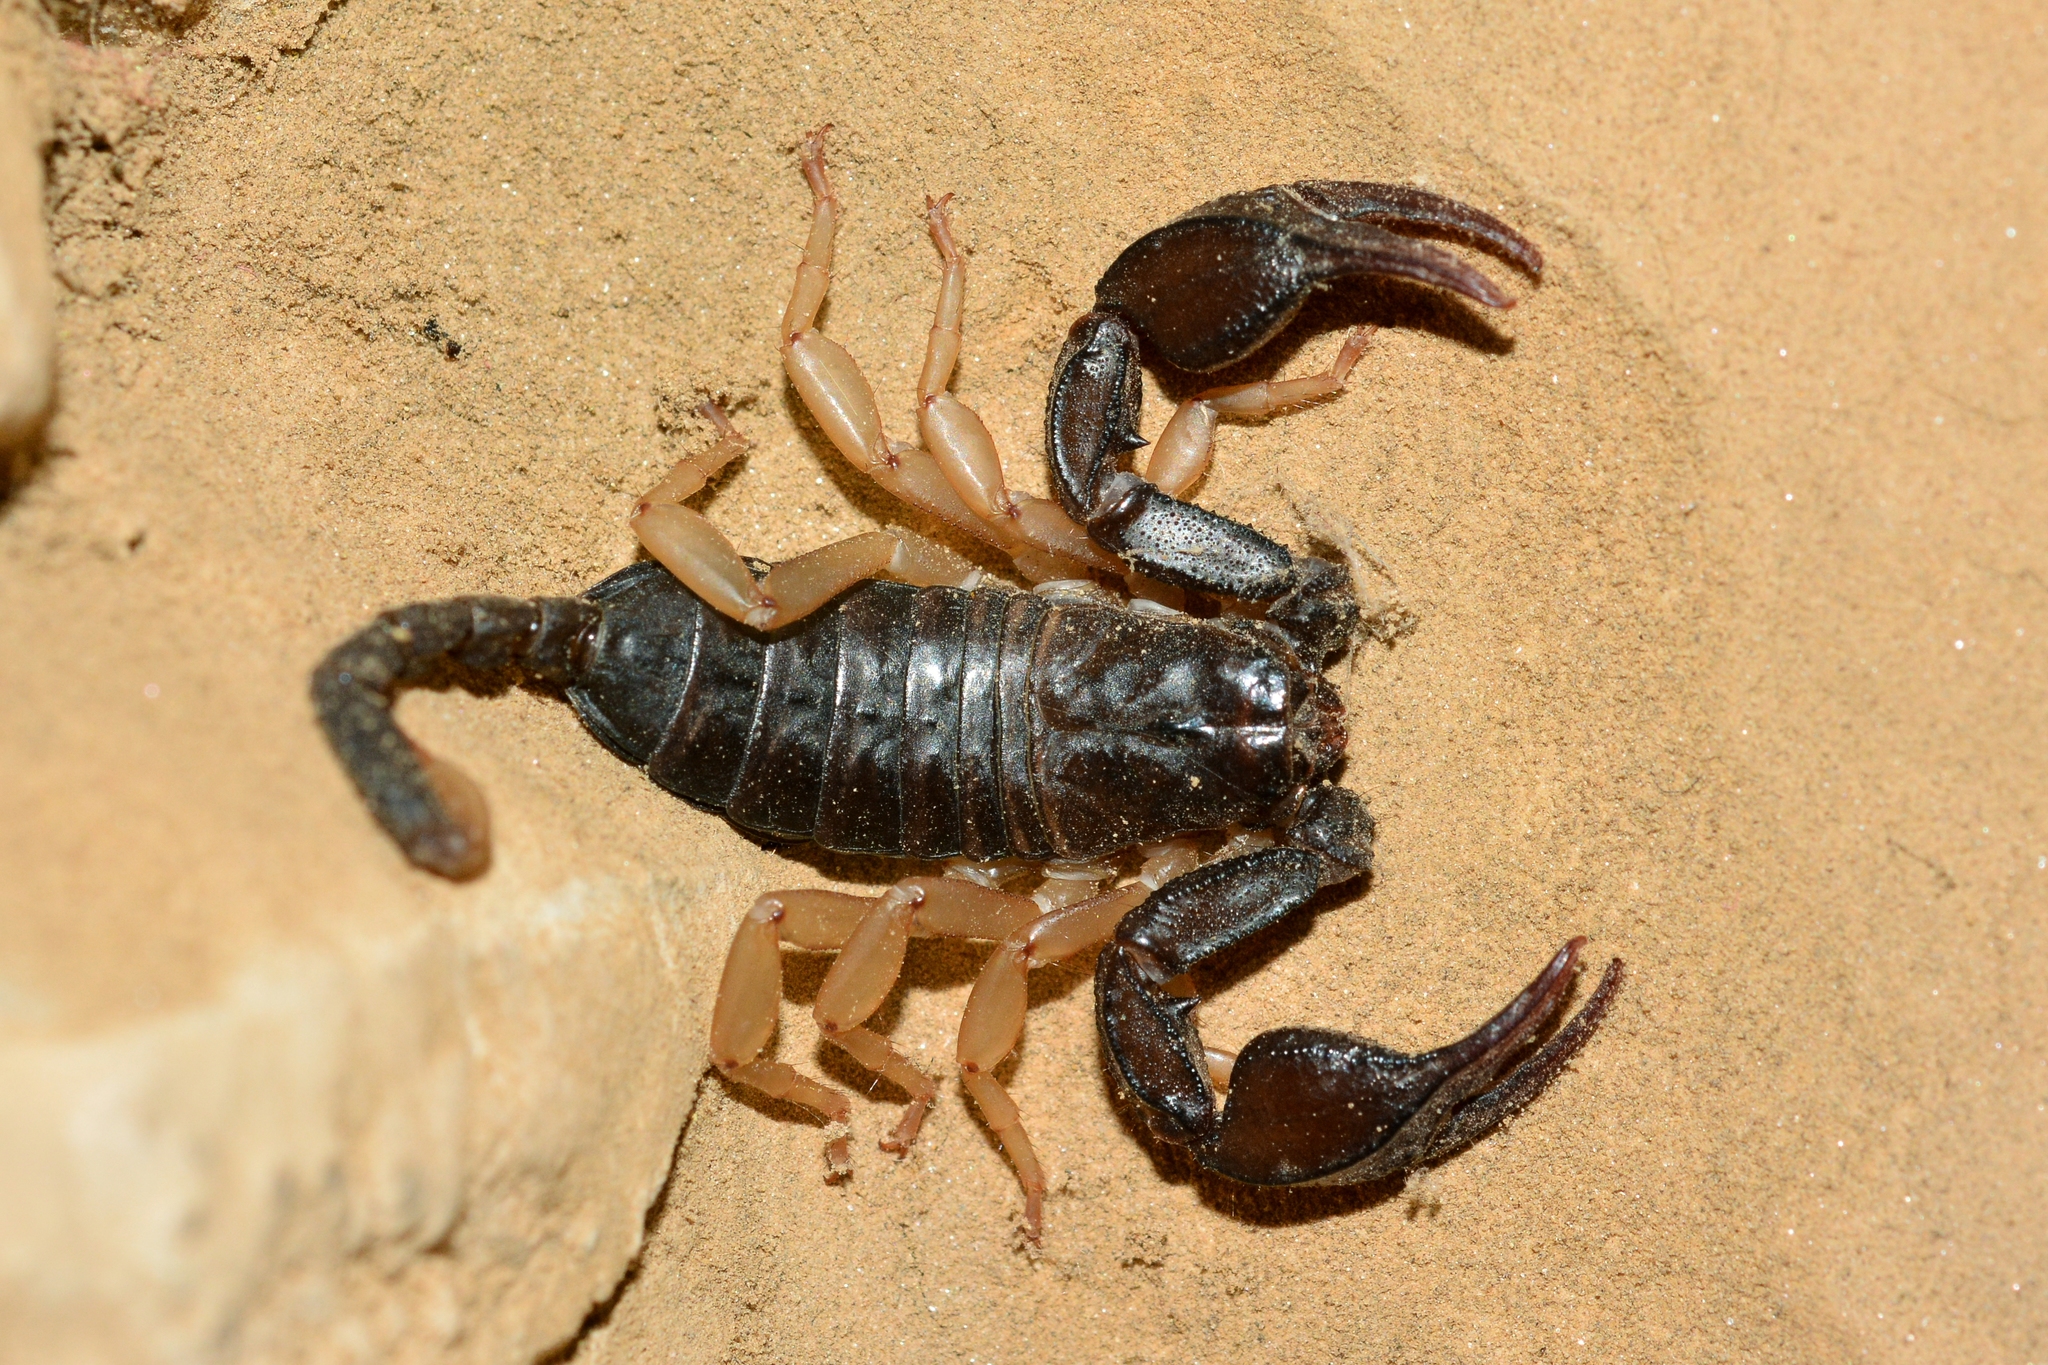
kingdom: Animalia
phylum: Arthropoda
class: Arachnida
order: Scorpiones
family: Euscorpiidae
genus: Euscorpius
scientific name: Euscorpius flavicaudis
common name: European yellow-tailed scorpion
